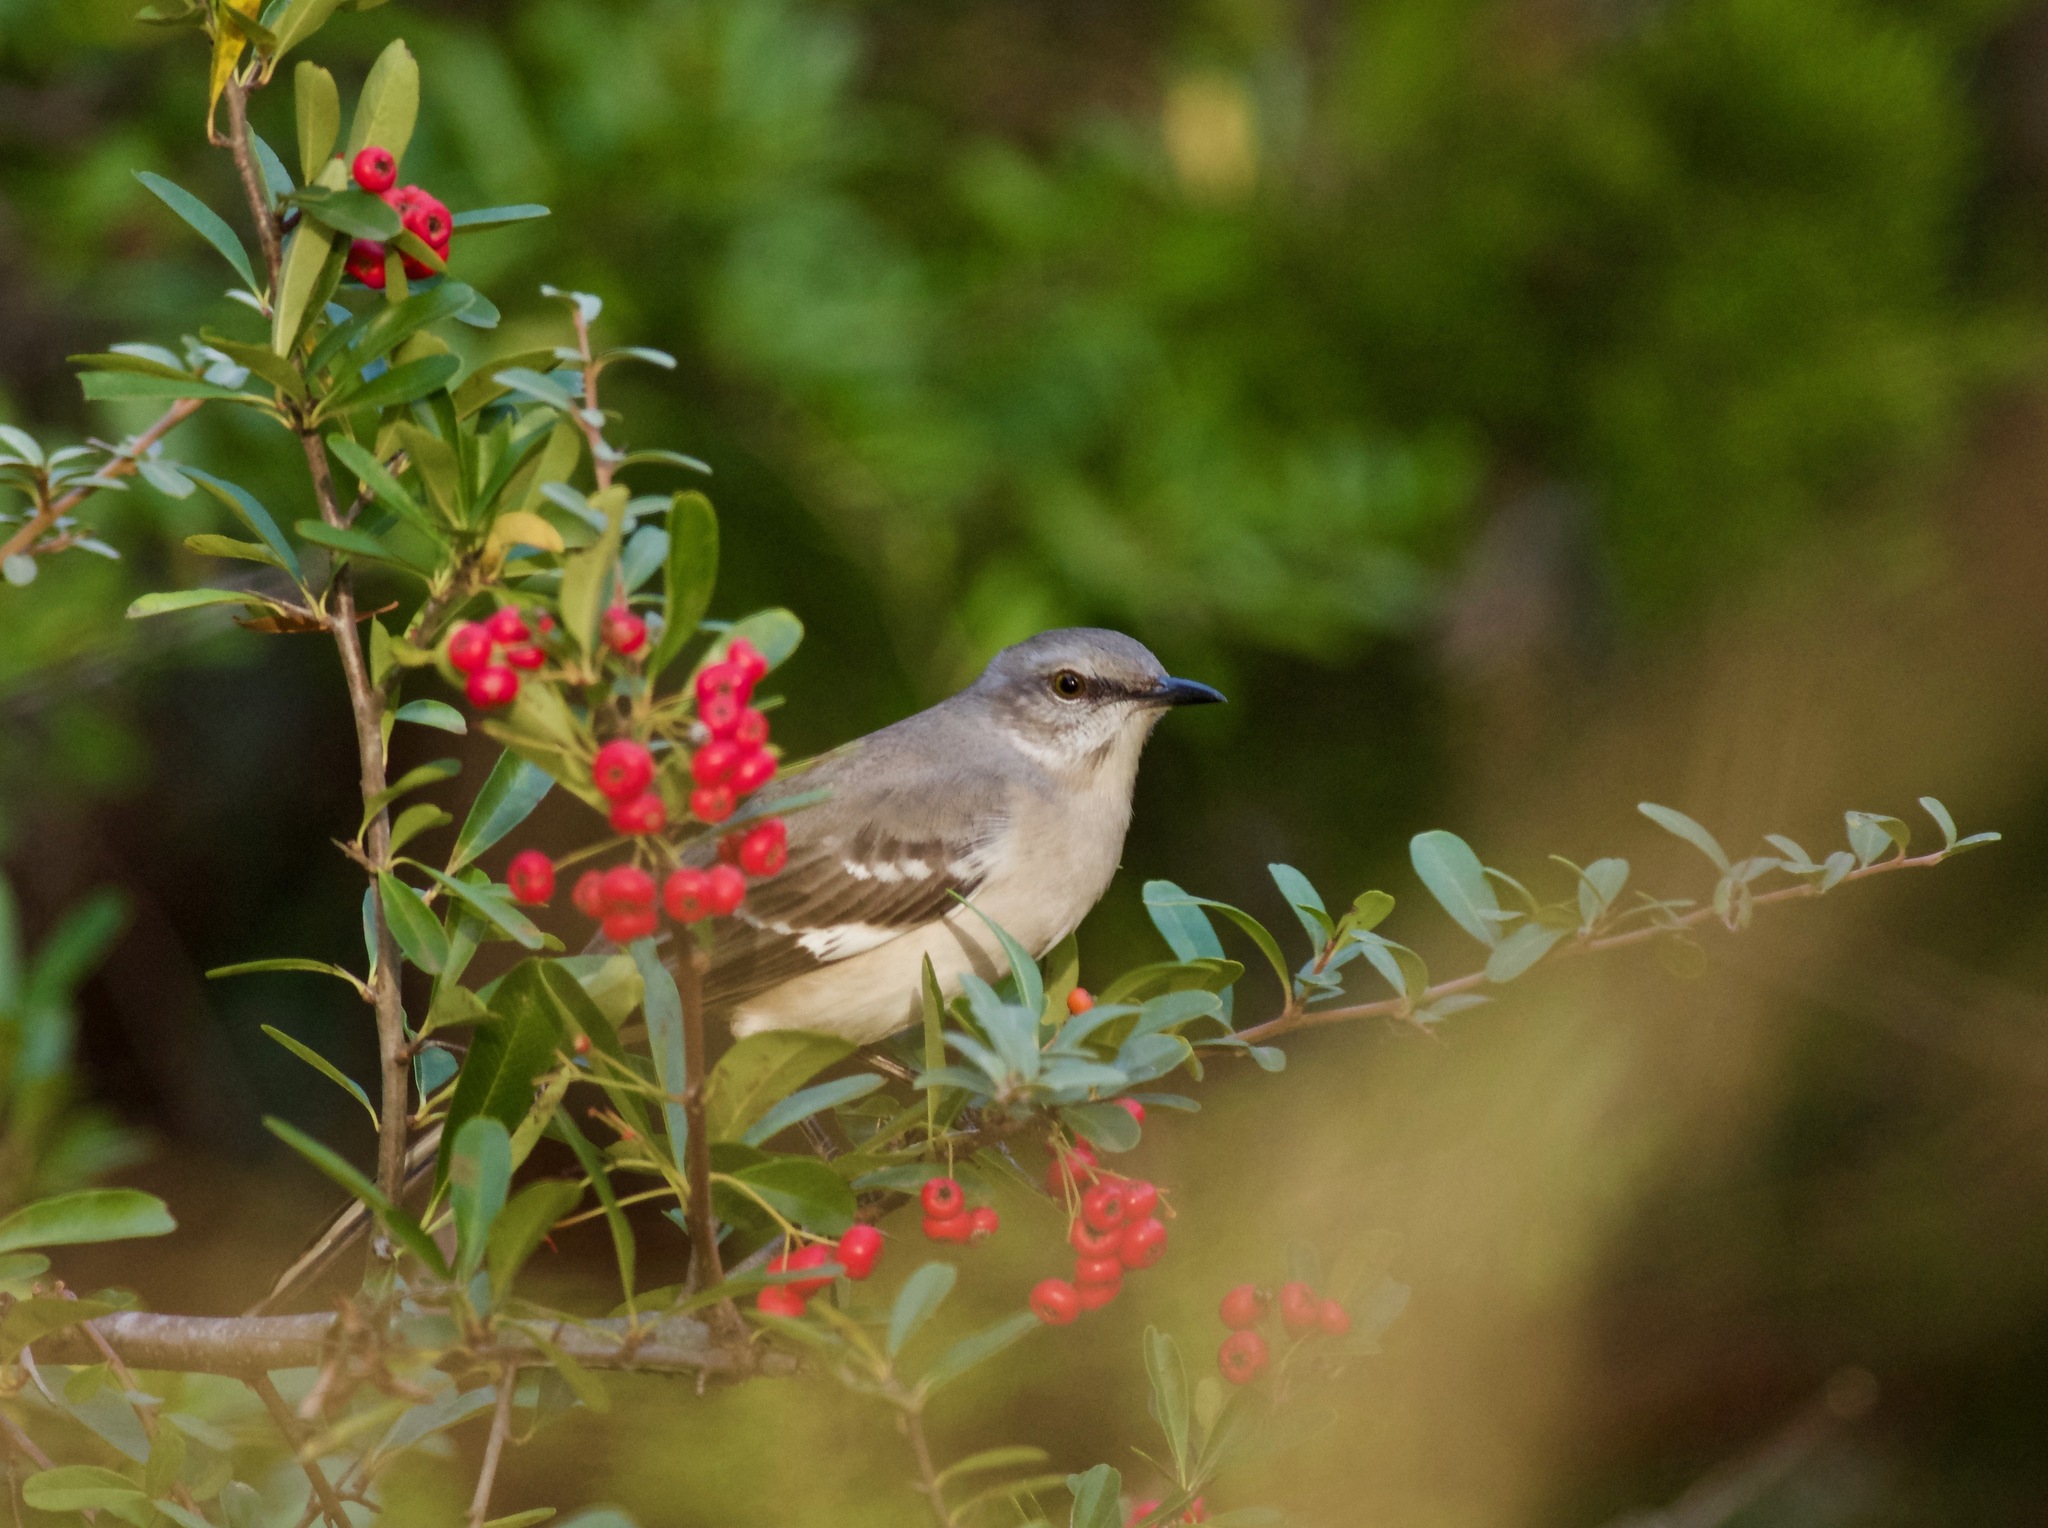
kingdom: Animalia
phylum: Chordata
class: Aves
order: Passeriformes
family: Mimidae
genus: Mimus
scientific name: Mimus polyglottos
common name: Northern mockingbird
